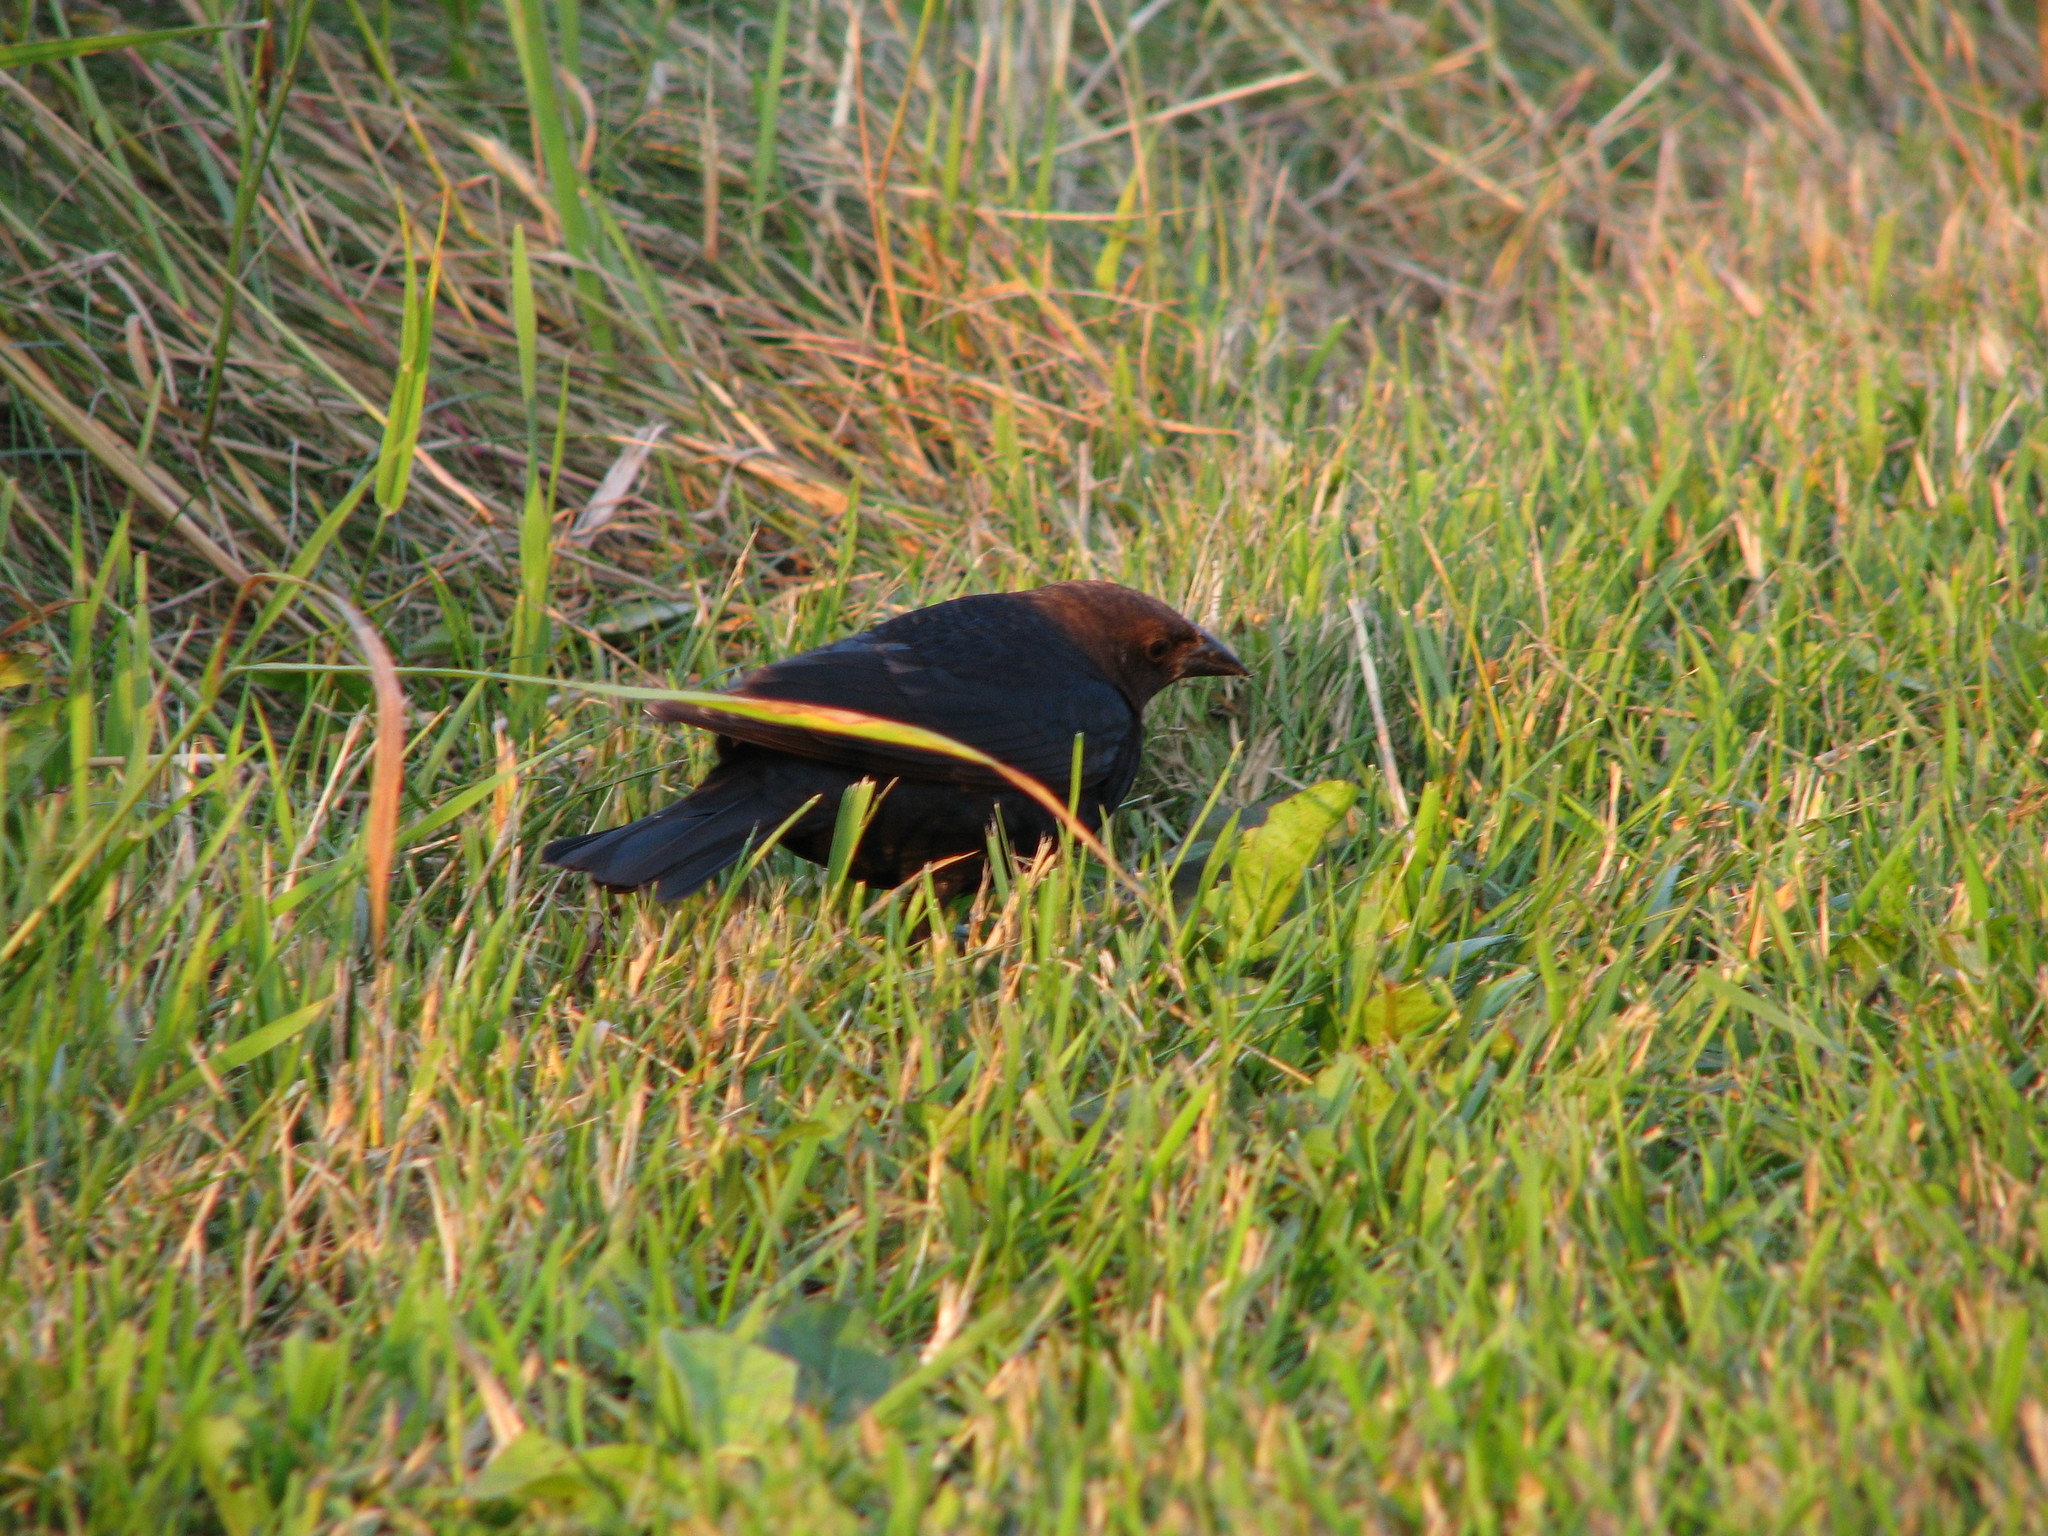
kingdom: Animalia
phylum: Chordata
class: Aves
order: Passeriformes
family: Icteridae
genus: Molothrus
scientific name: Molothrus ater
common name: Brown-headed cowbird
